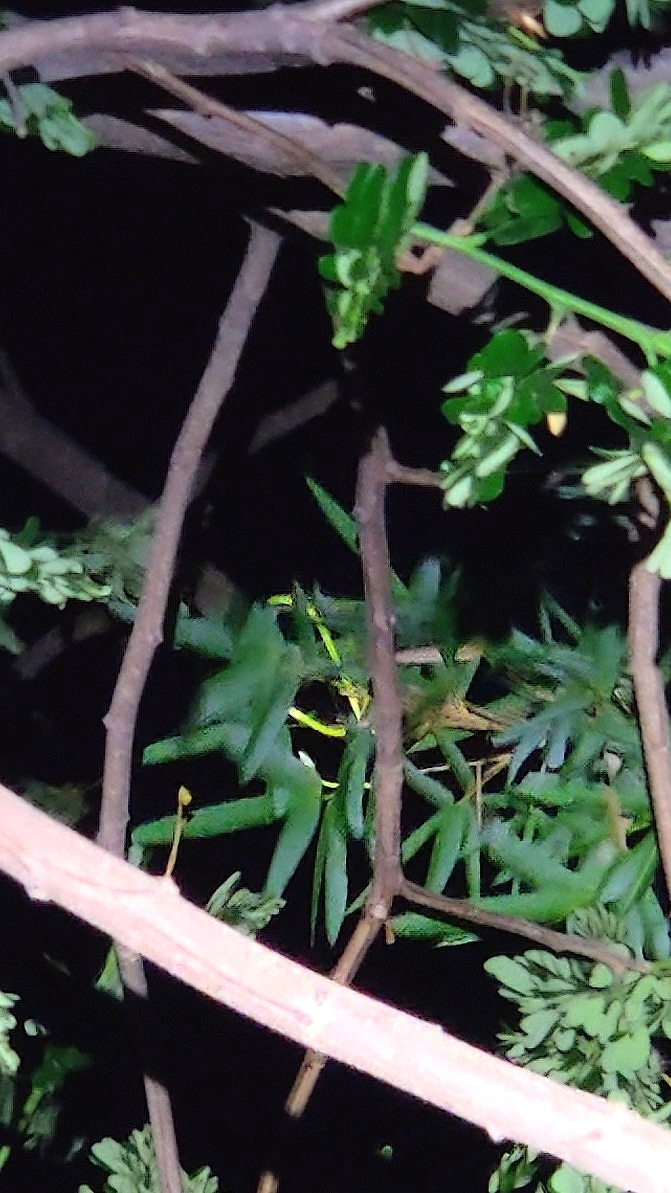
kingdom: Animalia
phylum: Chordata
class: Squamata
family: Colubridae
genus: Ahaetulla
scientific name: Ahaetulla oxyrhyncha
